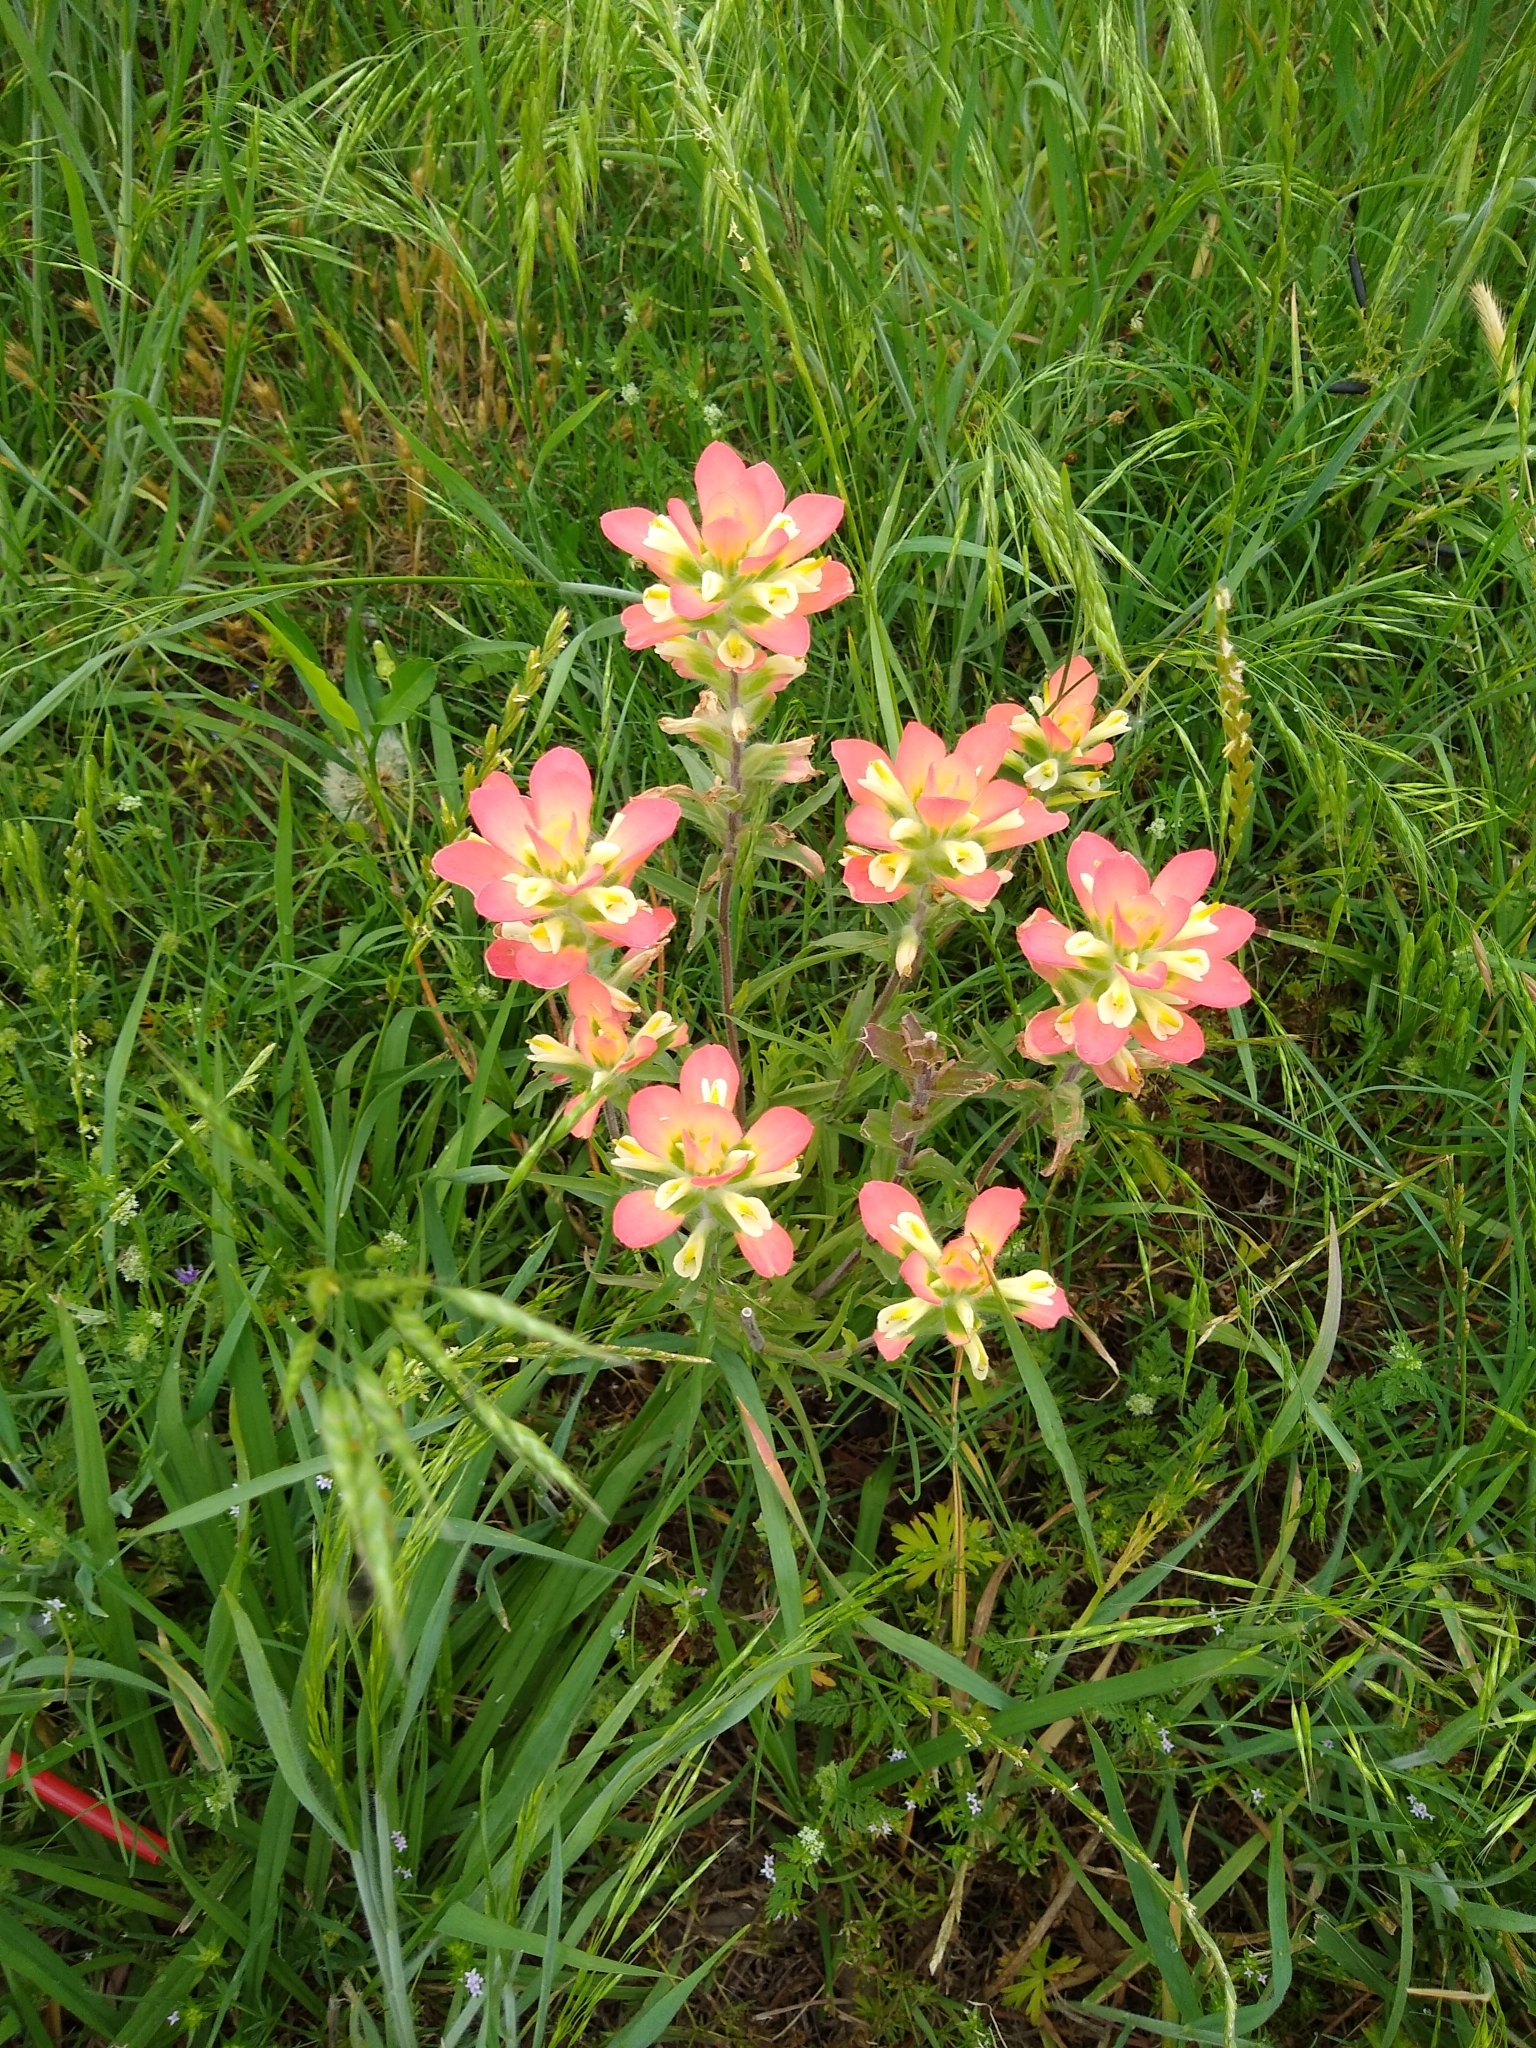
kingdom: Plantae
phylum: Tracheophyta
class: Magnoliopsida
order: Lamiales
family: Orobanchaceae
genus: Castilleja
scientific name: Castilleja indivisa
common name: Texas paintbrush
